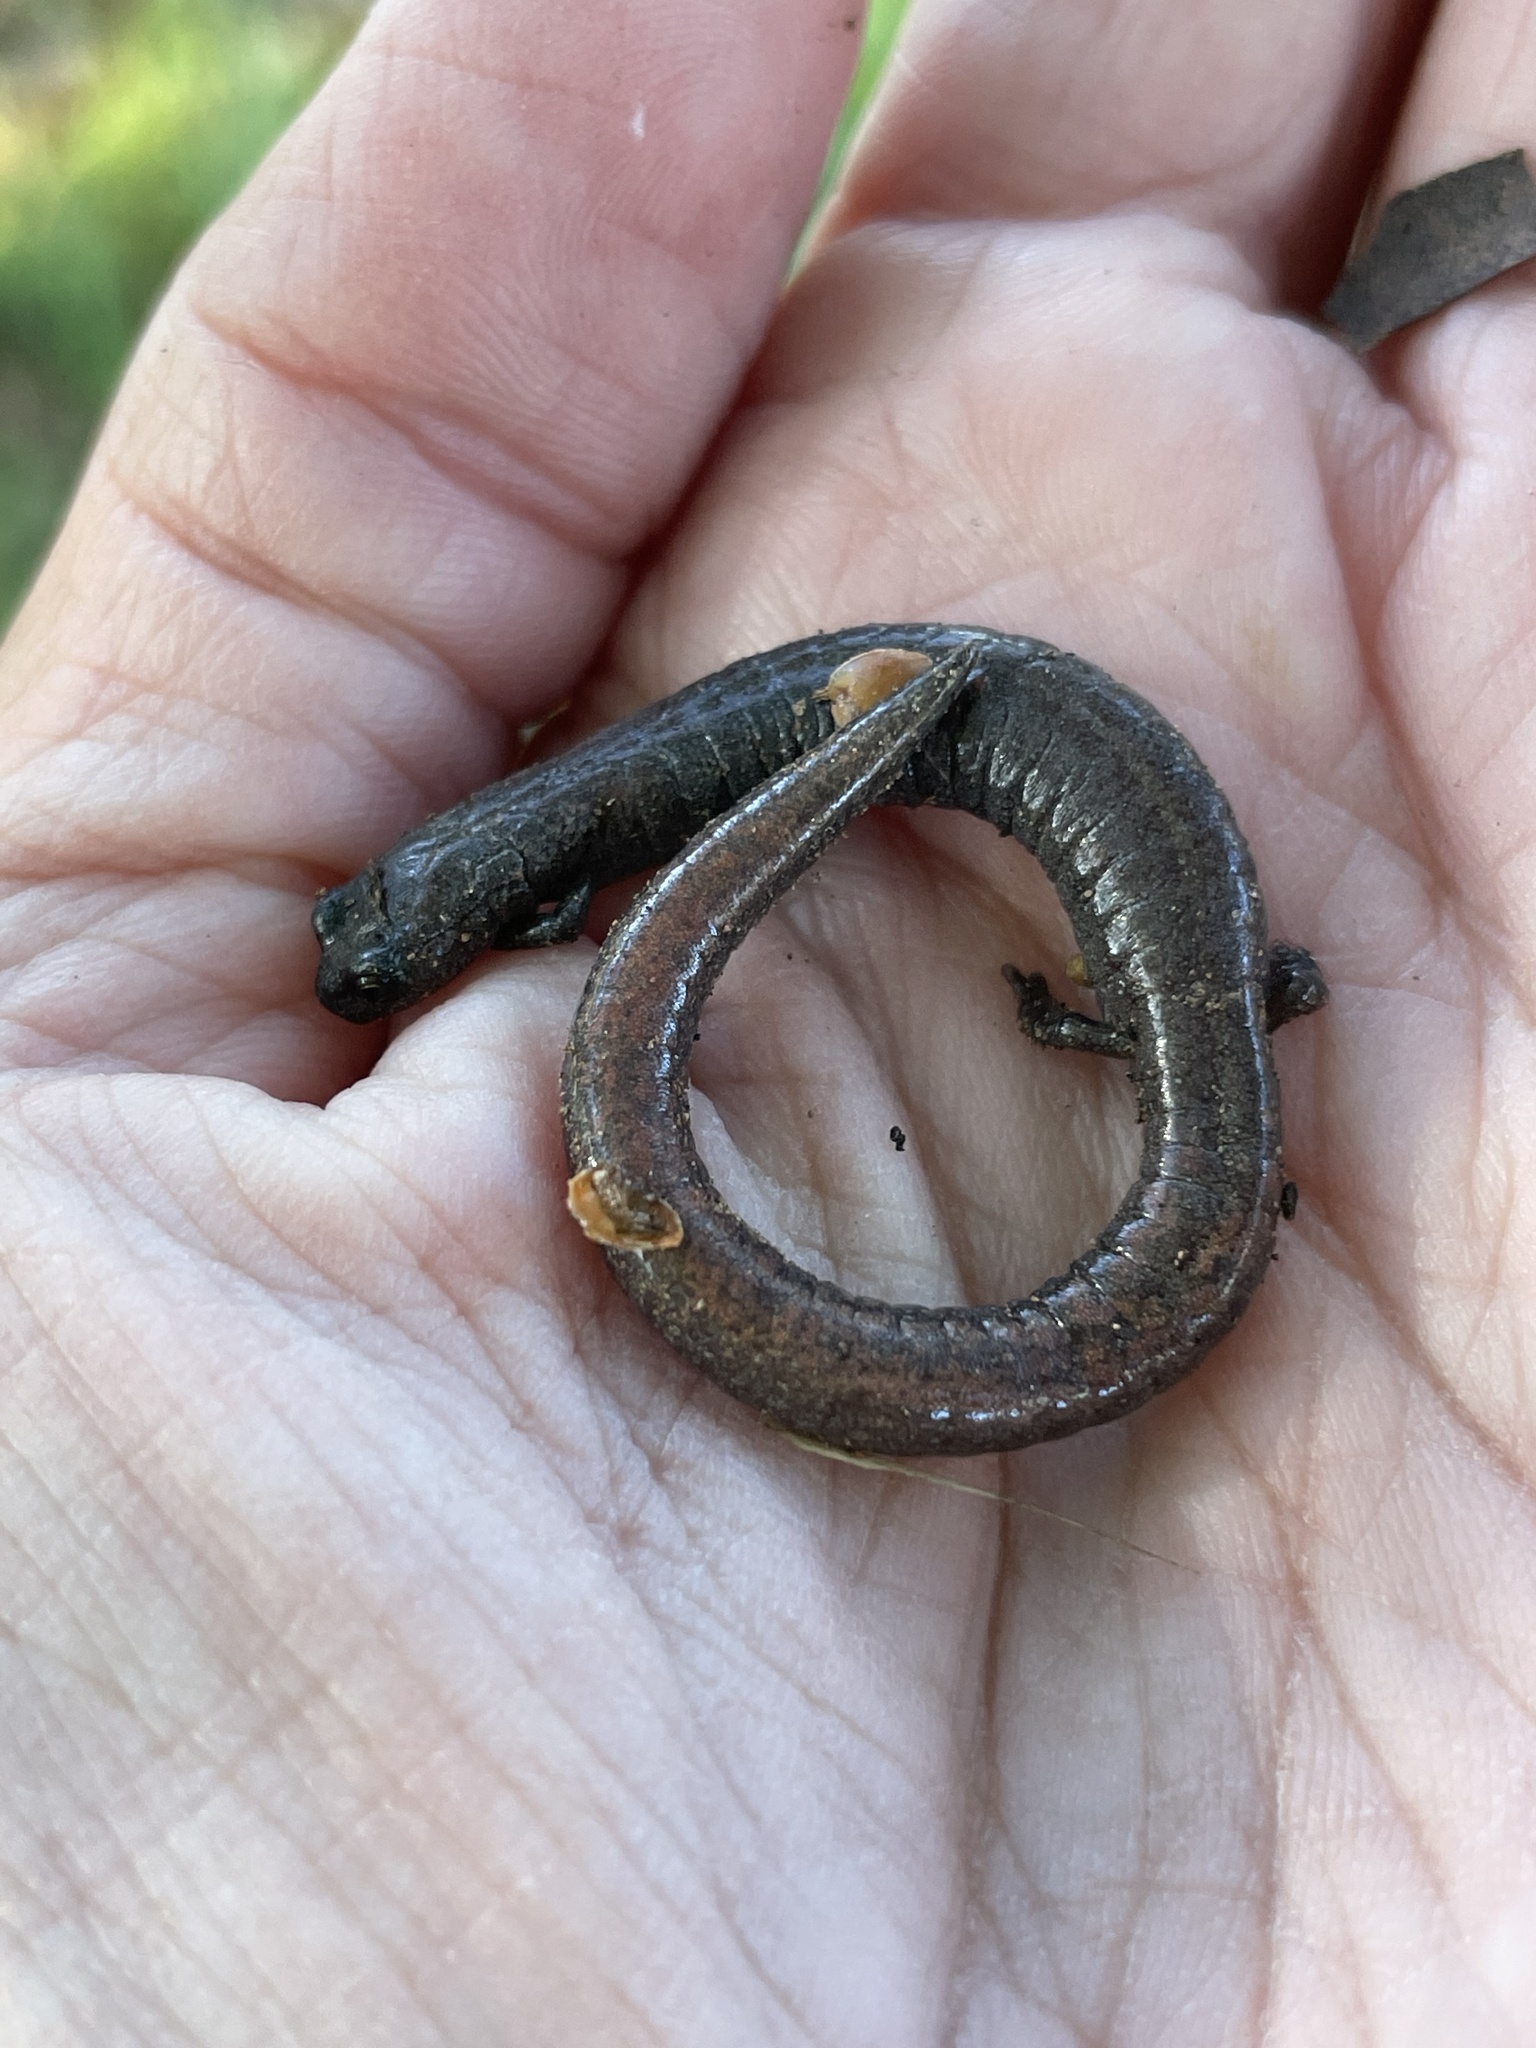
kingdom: Animalia
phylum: Chordata
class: Amphibia
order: Caudata
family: Plethodontidae
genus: Batrachoseps
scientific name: Batrachoseps major
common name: Garden slender salamander
